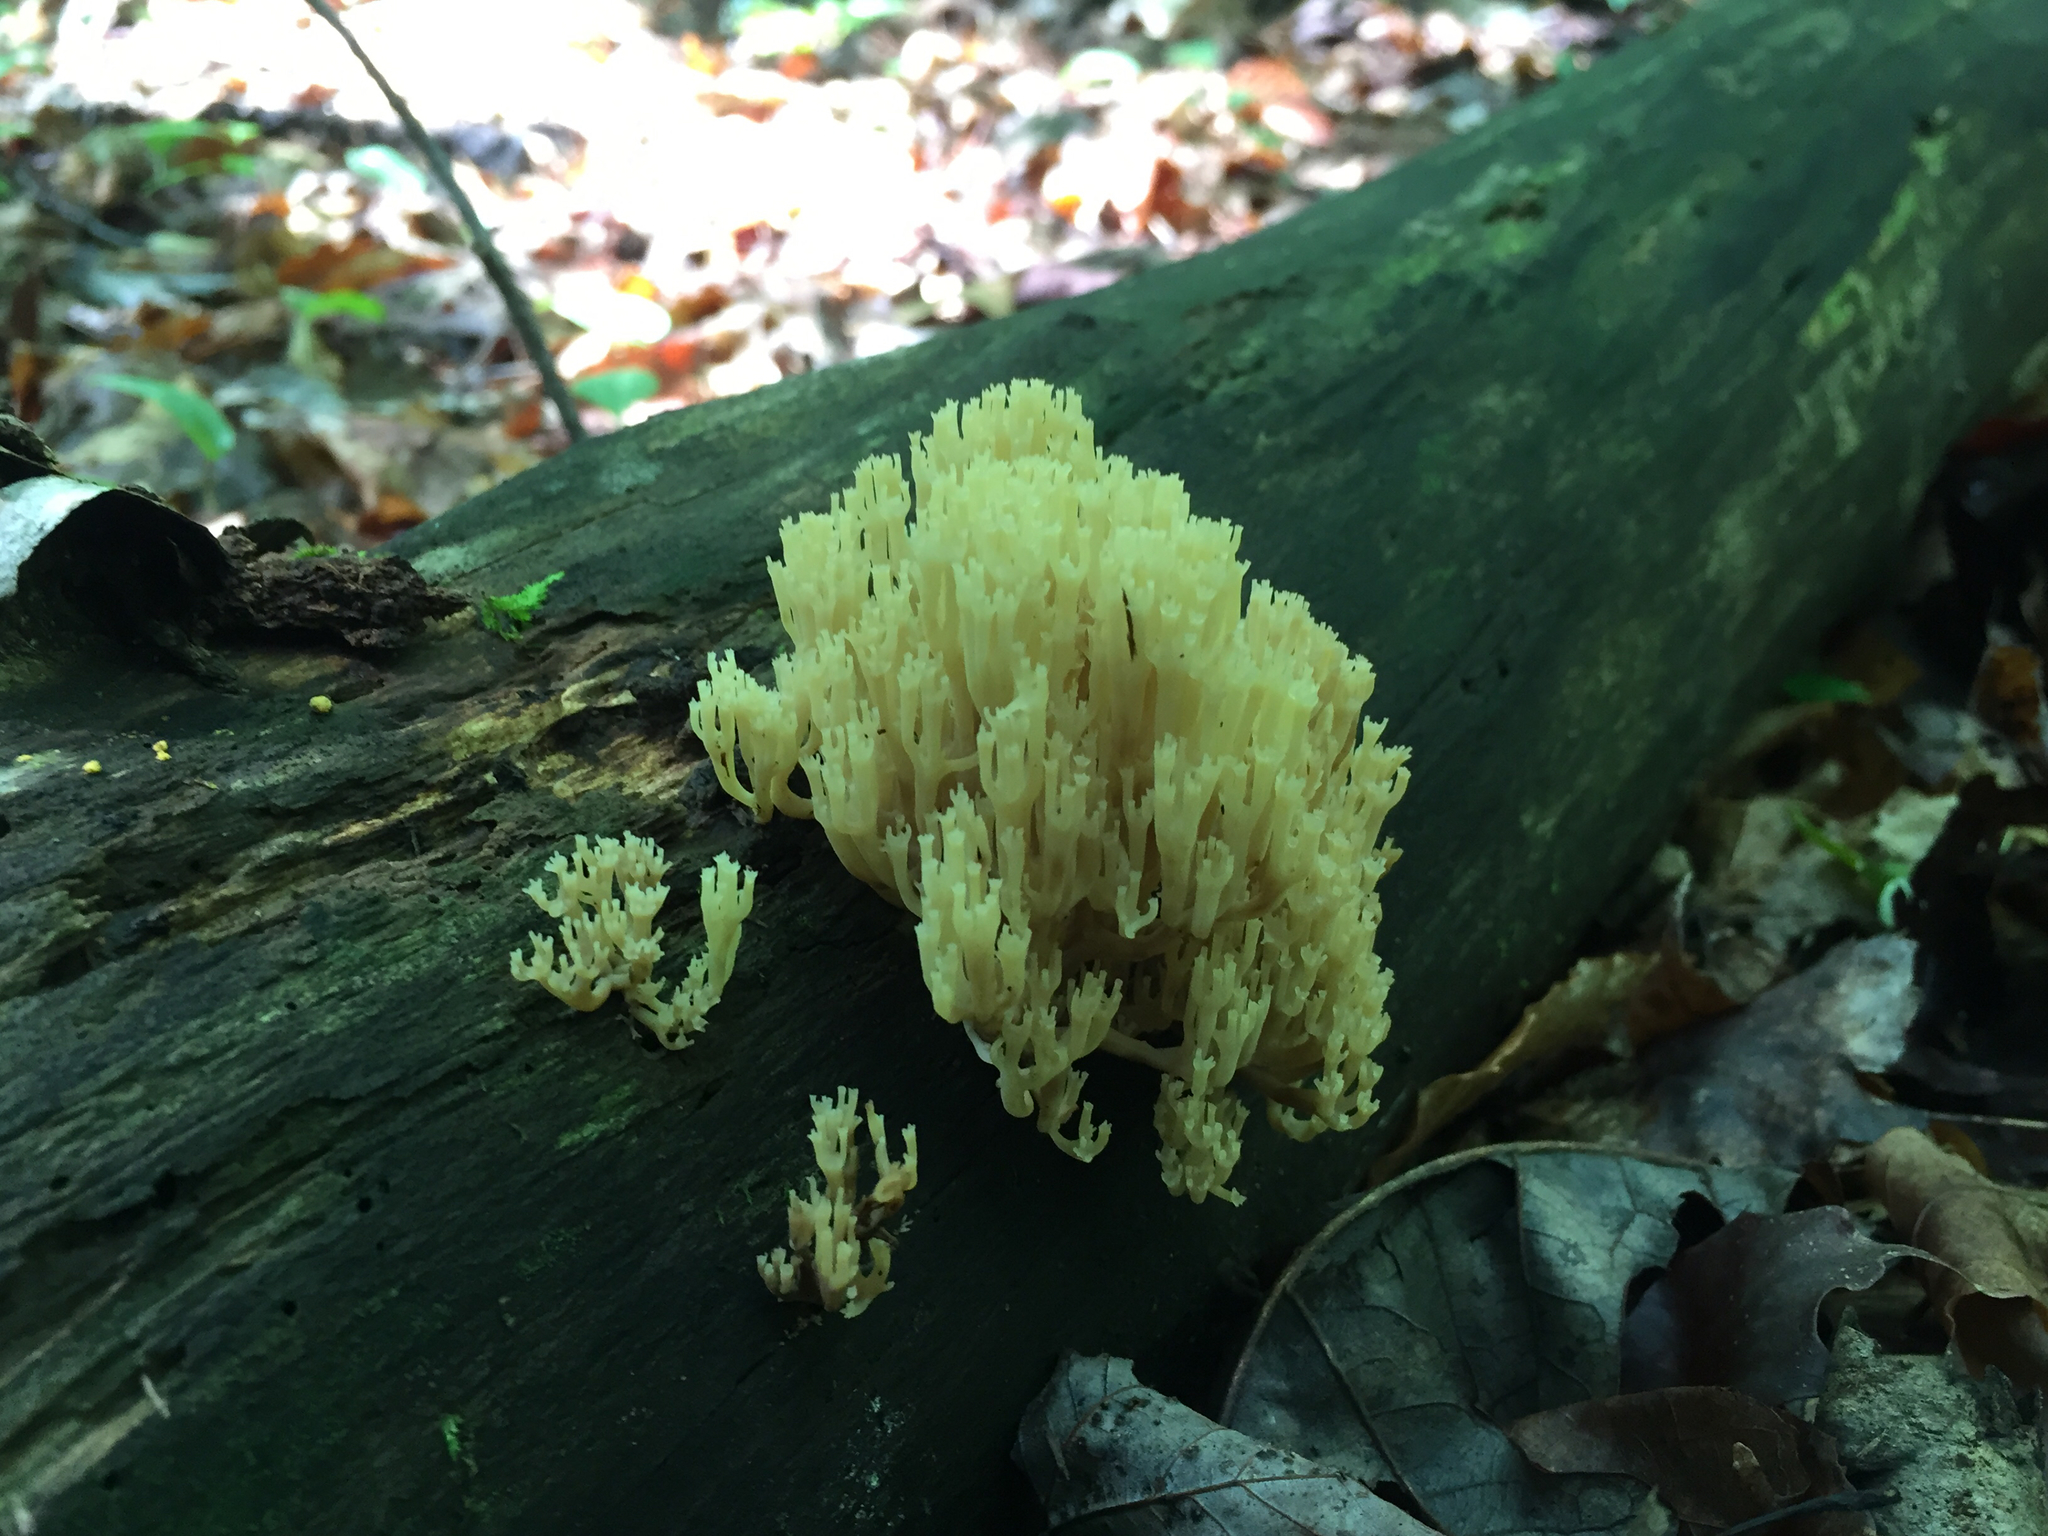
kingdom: Fungi
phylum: Basidiomycota
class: Agaricomycetes
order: Russulales
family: Auriscalpiaceae
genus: Artomyces
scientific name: Artomyces pyxidatus
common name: Crown-tipped coral fungus
